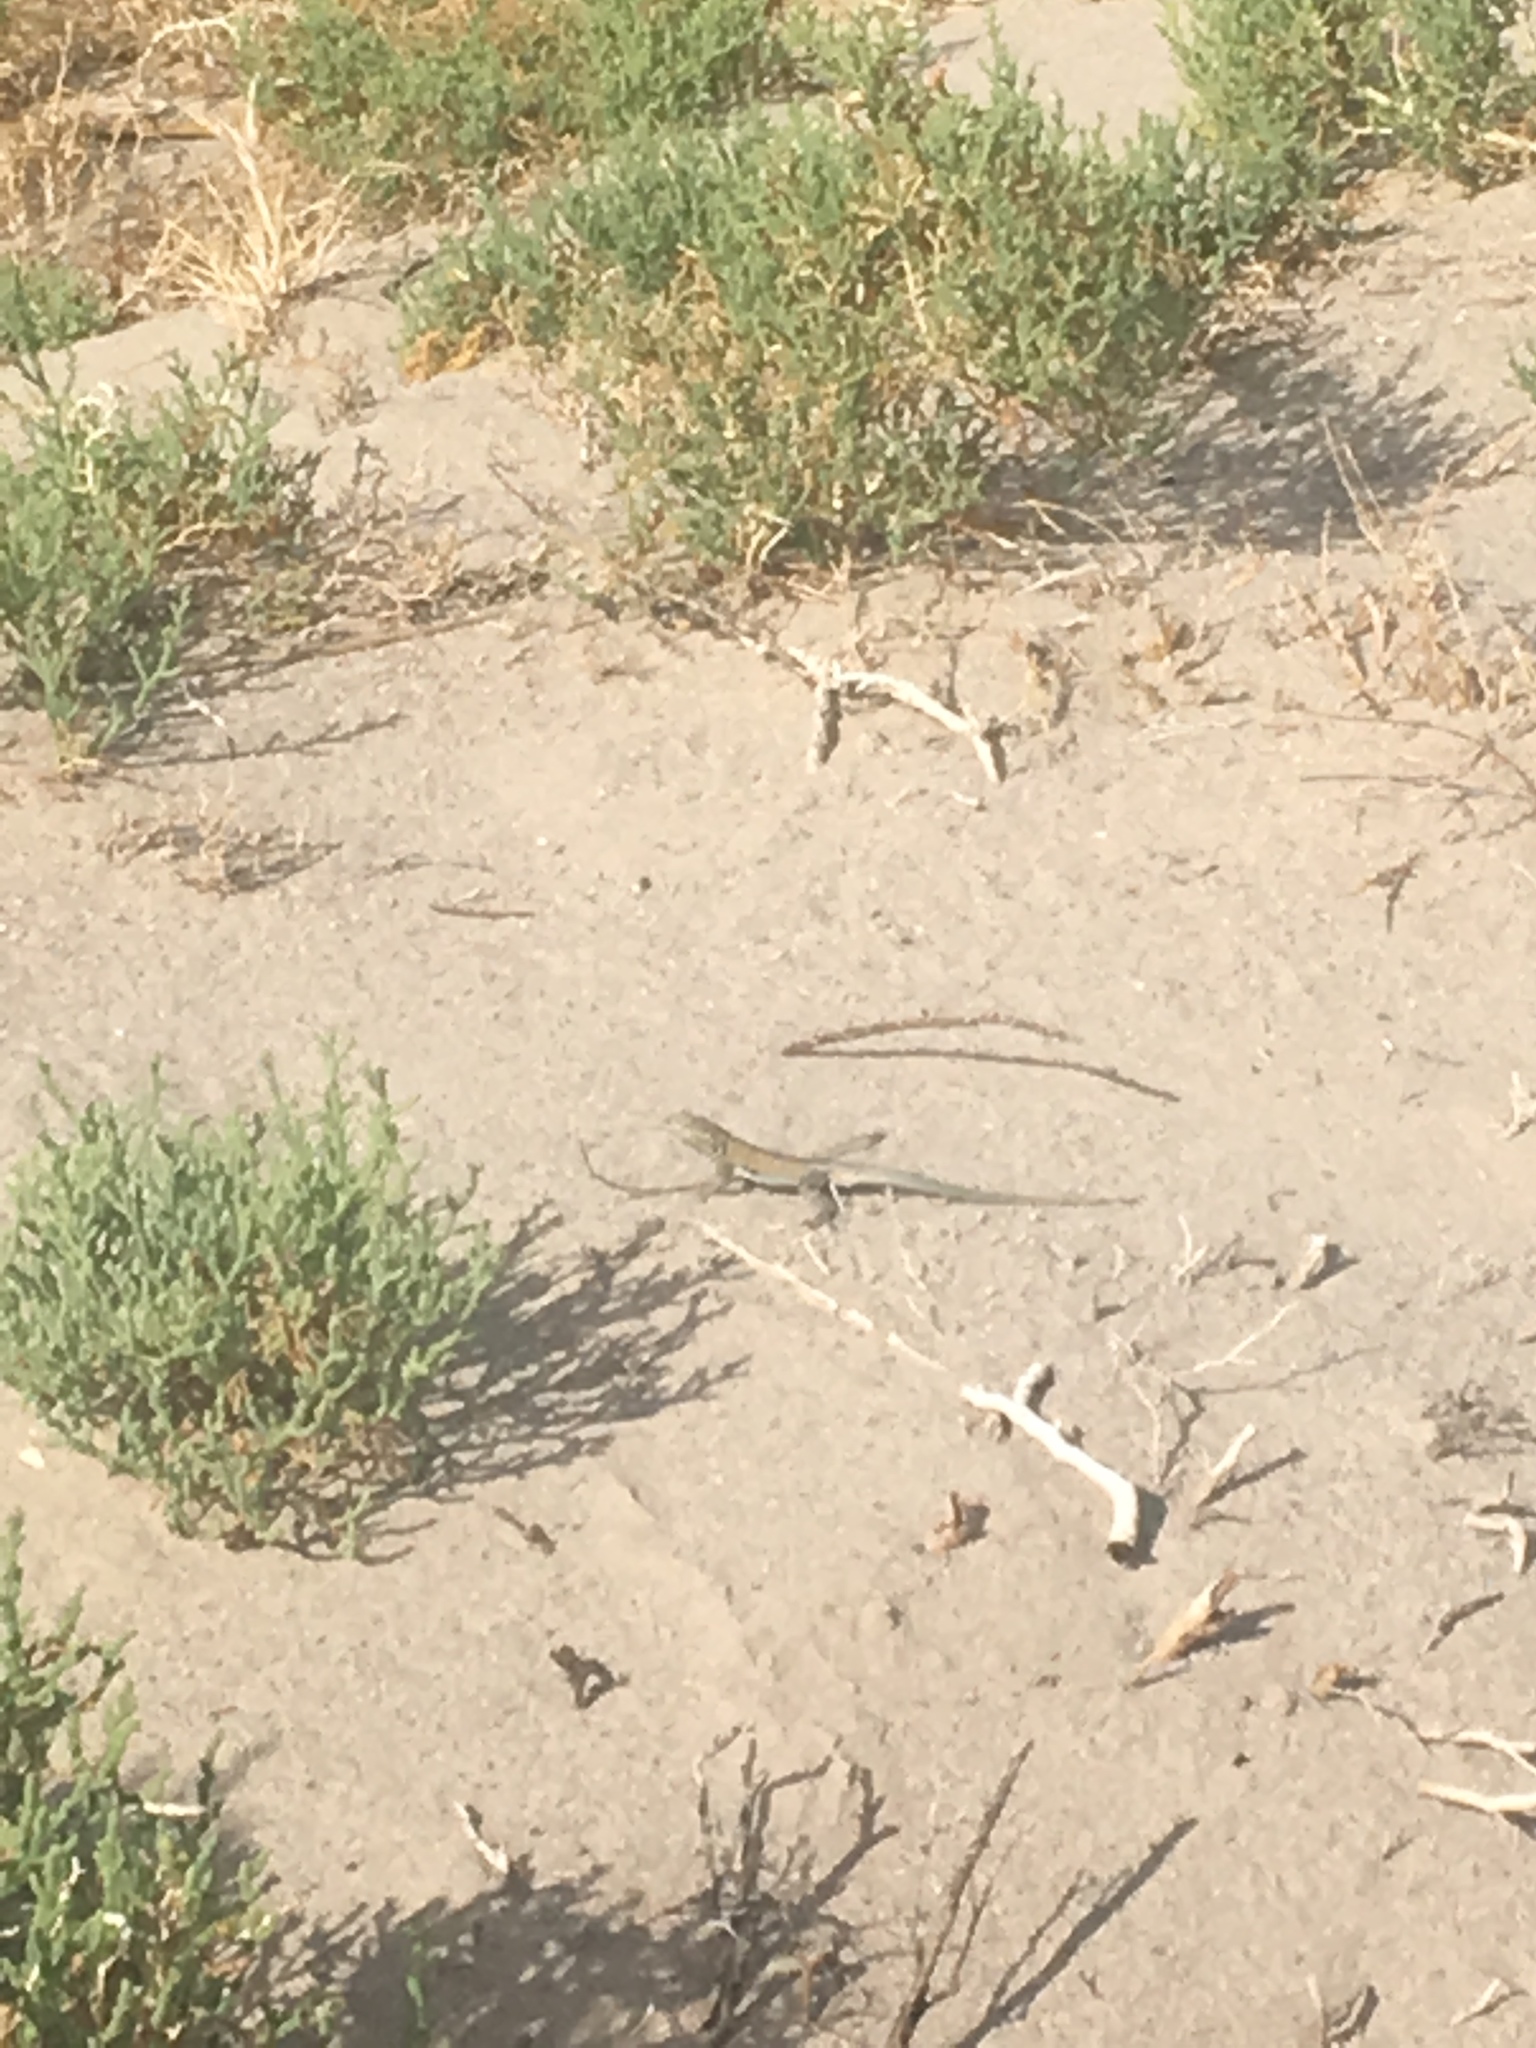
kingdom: Animalia
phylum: Chordata
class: Squamata
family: Phrynosomatidae
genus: Uta
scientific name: Uta stansburiana
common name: Side-blotched lizard
